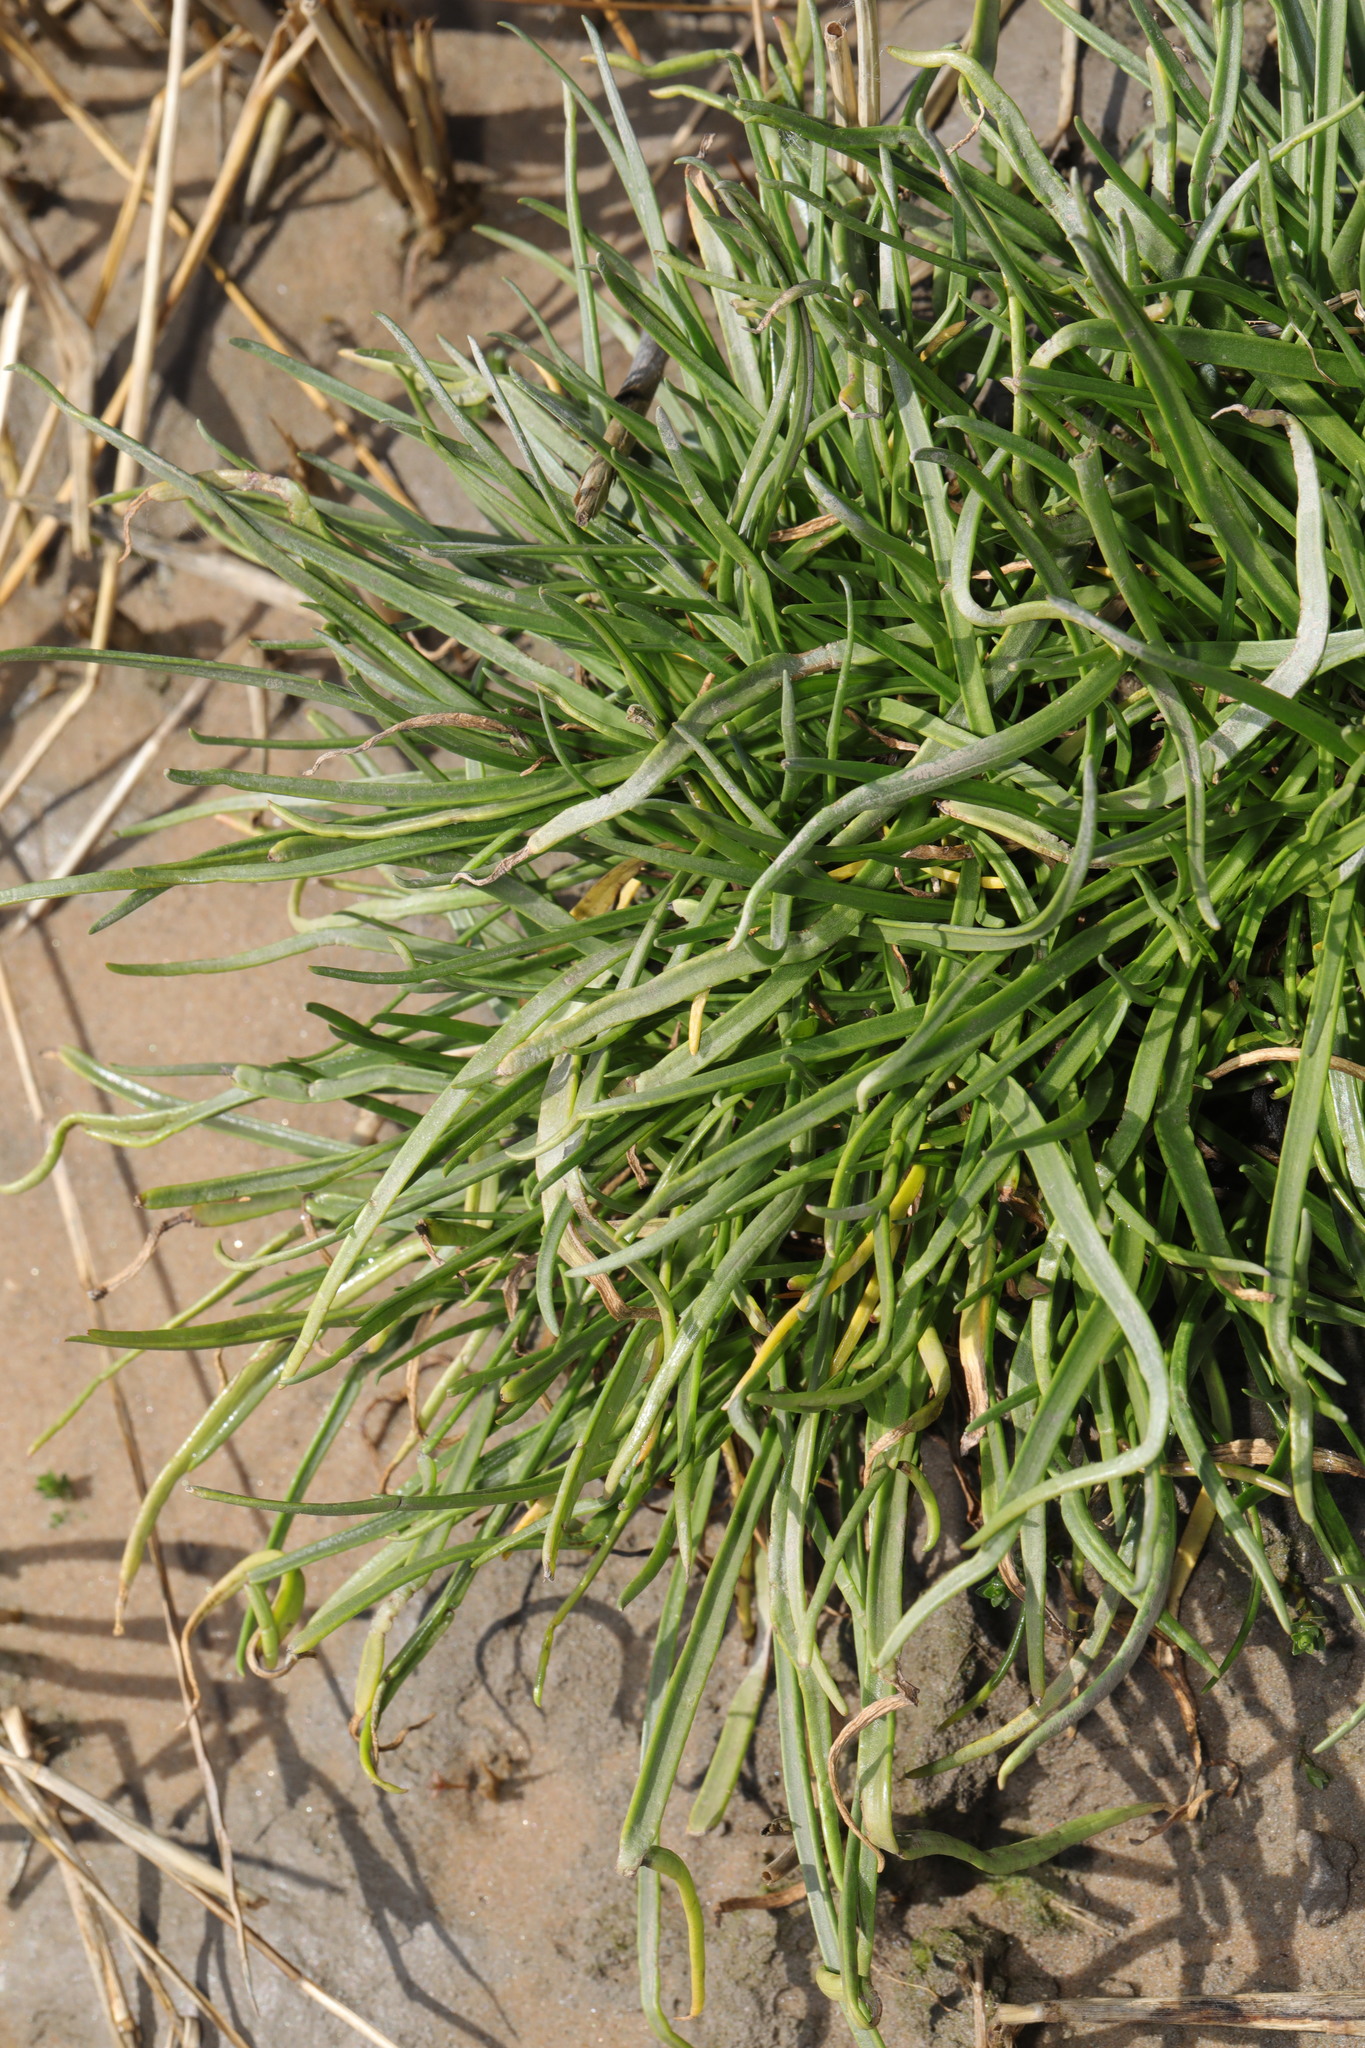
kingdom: Plantae
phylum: Tracheophyta
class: Magnoliopsida
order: Lamiales
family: Plantaginaceae
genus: Plantago
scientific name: Plantago maritima
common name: Sea plantain
